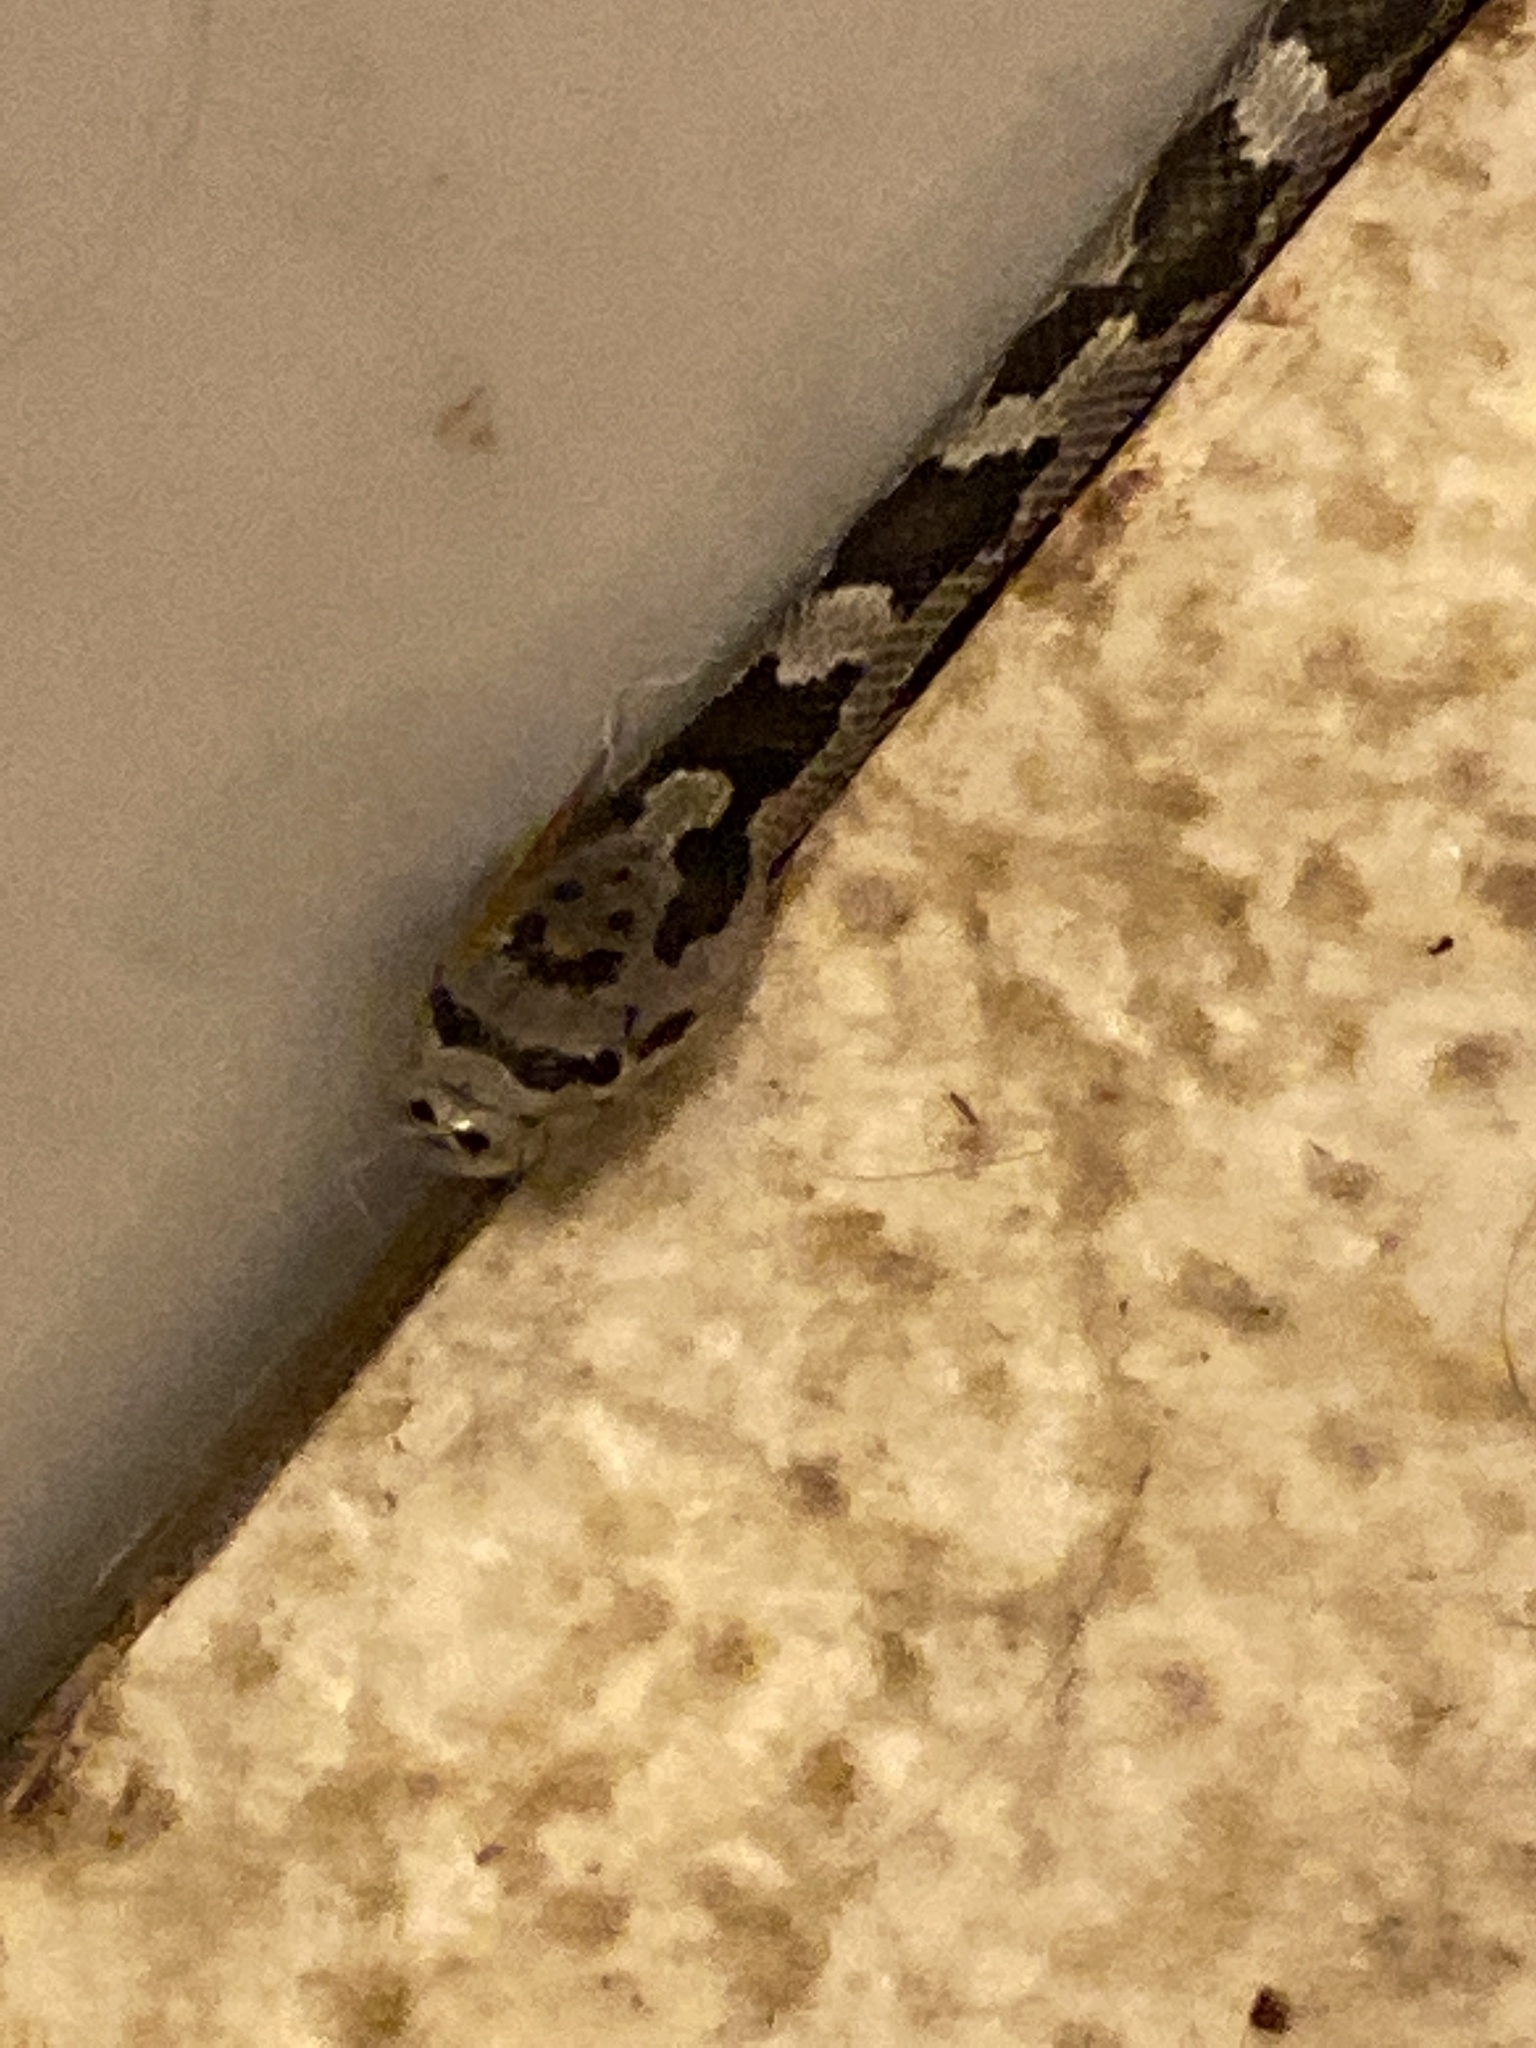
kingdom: Animalia
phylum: Chordata
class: Squamata
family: Colubridae
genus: Pantherophis
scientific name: Pantherophis
